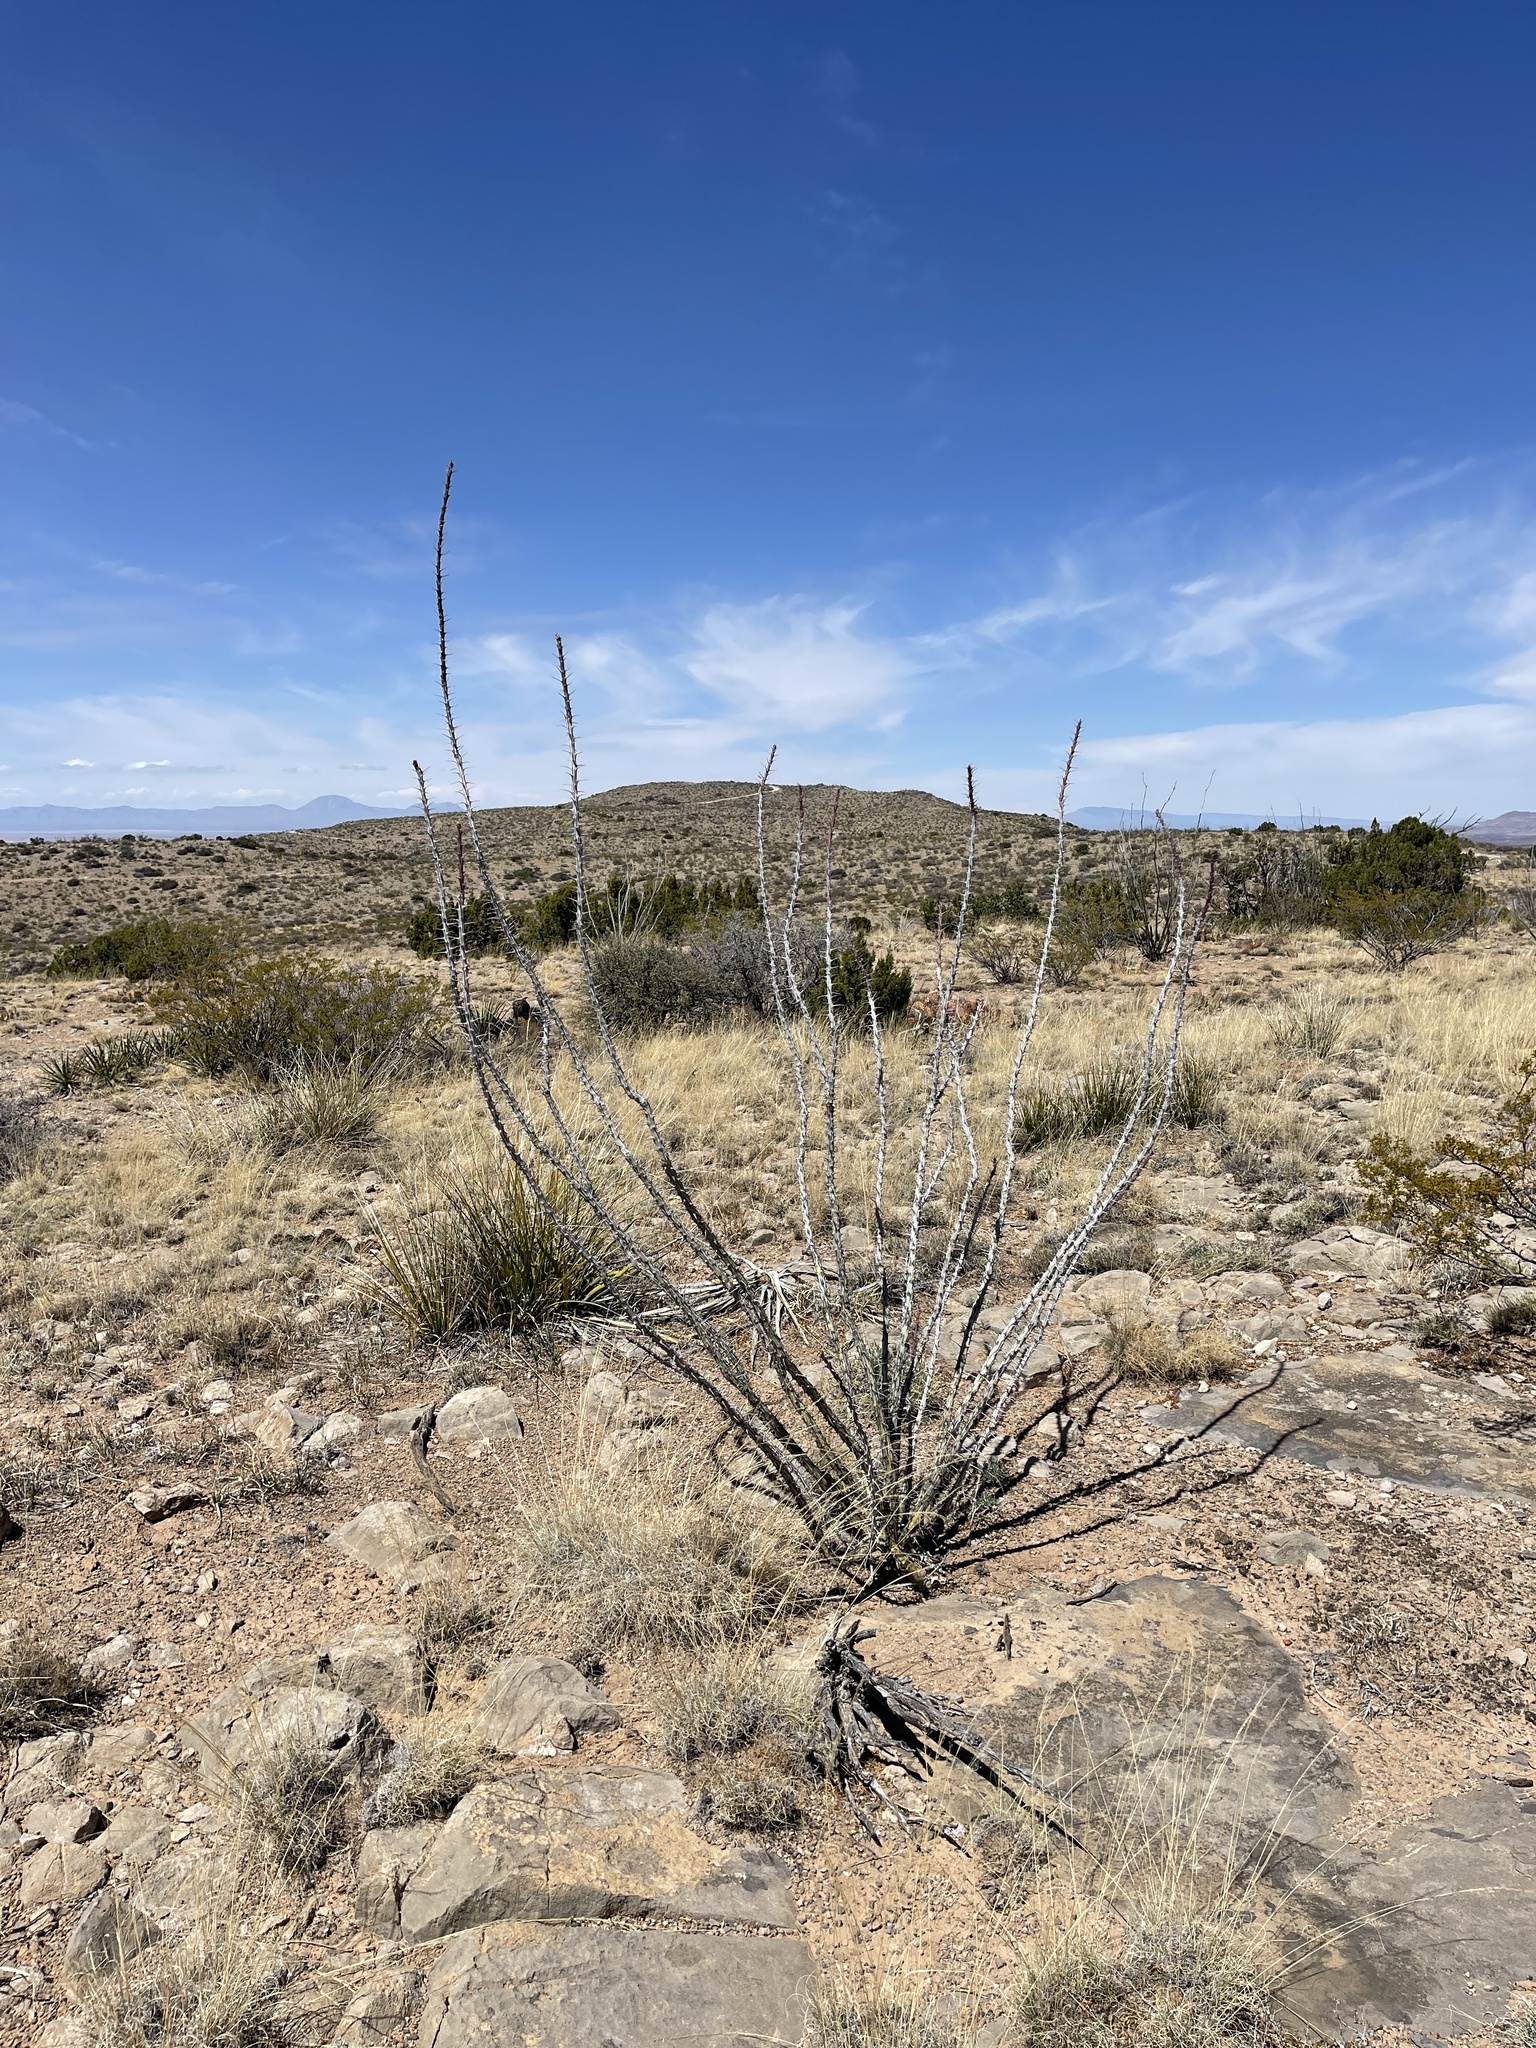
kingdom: Plantae
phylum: Tracheophyta
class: Magnoliopsida
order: Ericales
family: Fouquieriaceae
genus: Fouquieria
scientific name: Fouquieria splendens
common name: Vine-cactus
